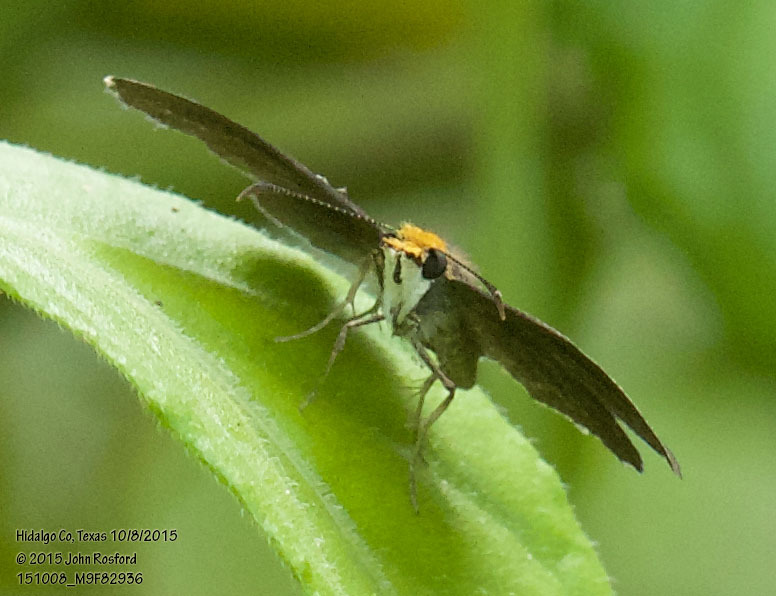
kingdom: Animalia
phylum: Arthropoda
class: Insecta
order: Lepidoptera
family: Hesperiidae
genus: Staphylus
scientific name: Staphylus ceos
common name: Golden-headed scallopwing
